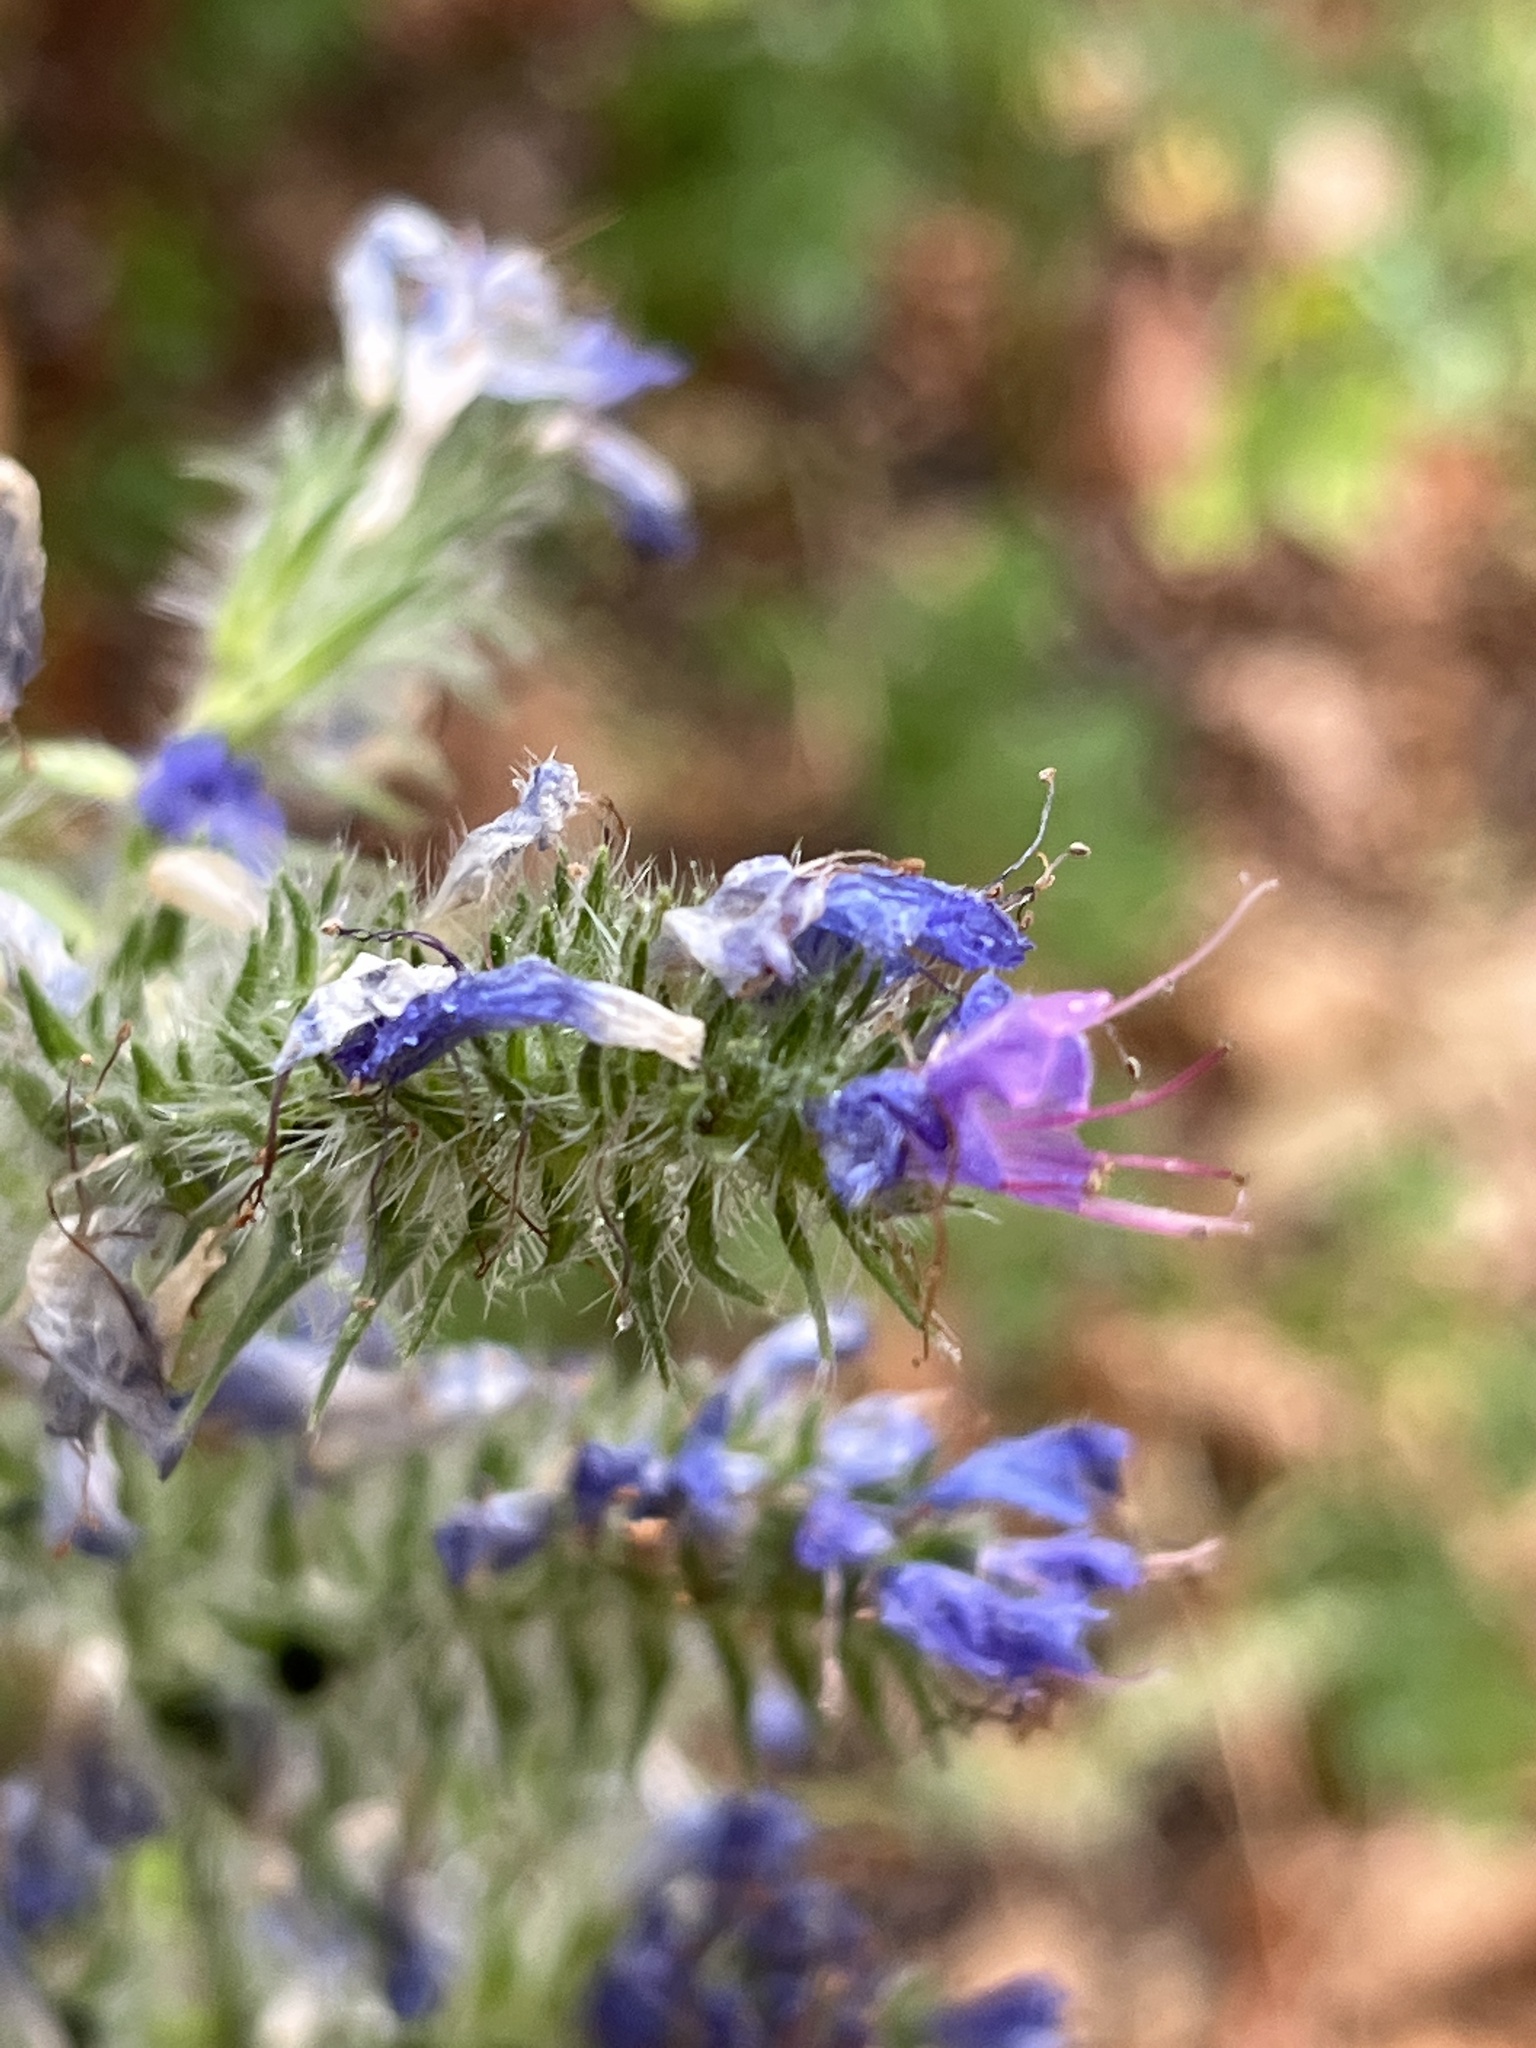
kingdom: Plantae
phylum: Tracheophyta
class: Magnoliopsida
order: Boraginales
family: Boraginaceae
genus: Echium
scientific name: Echium vulgare
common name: Common viper's bugloss
